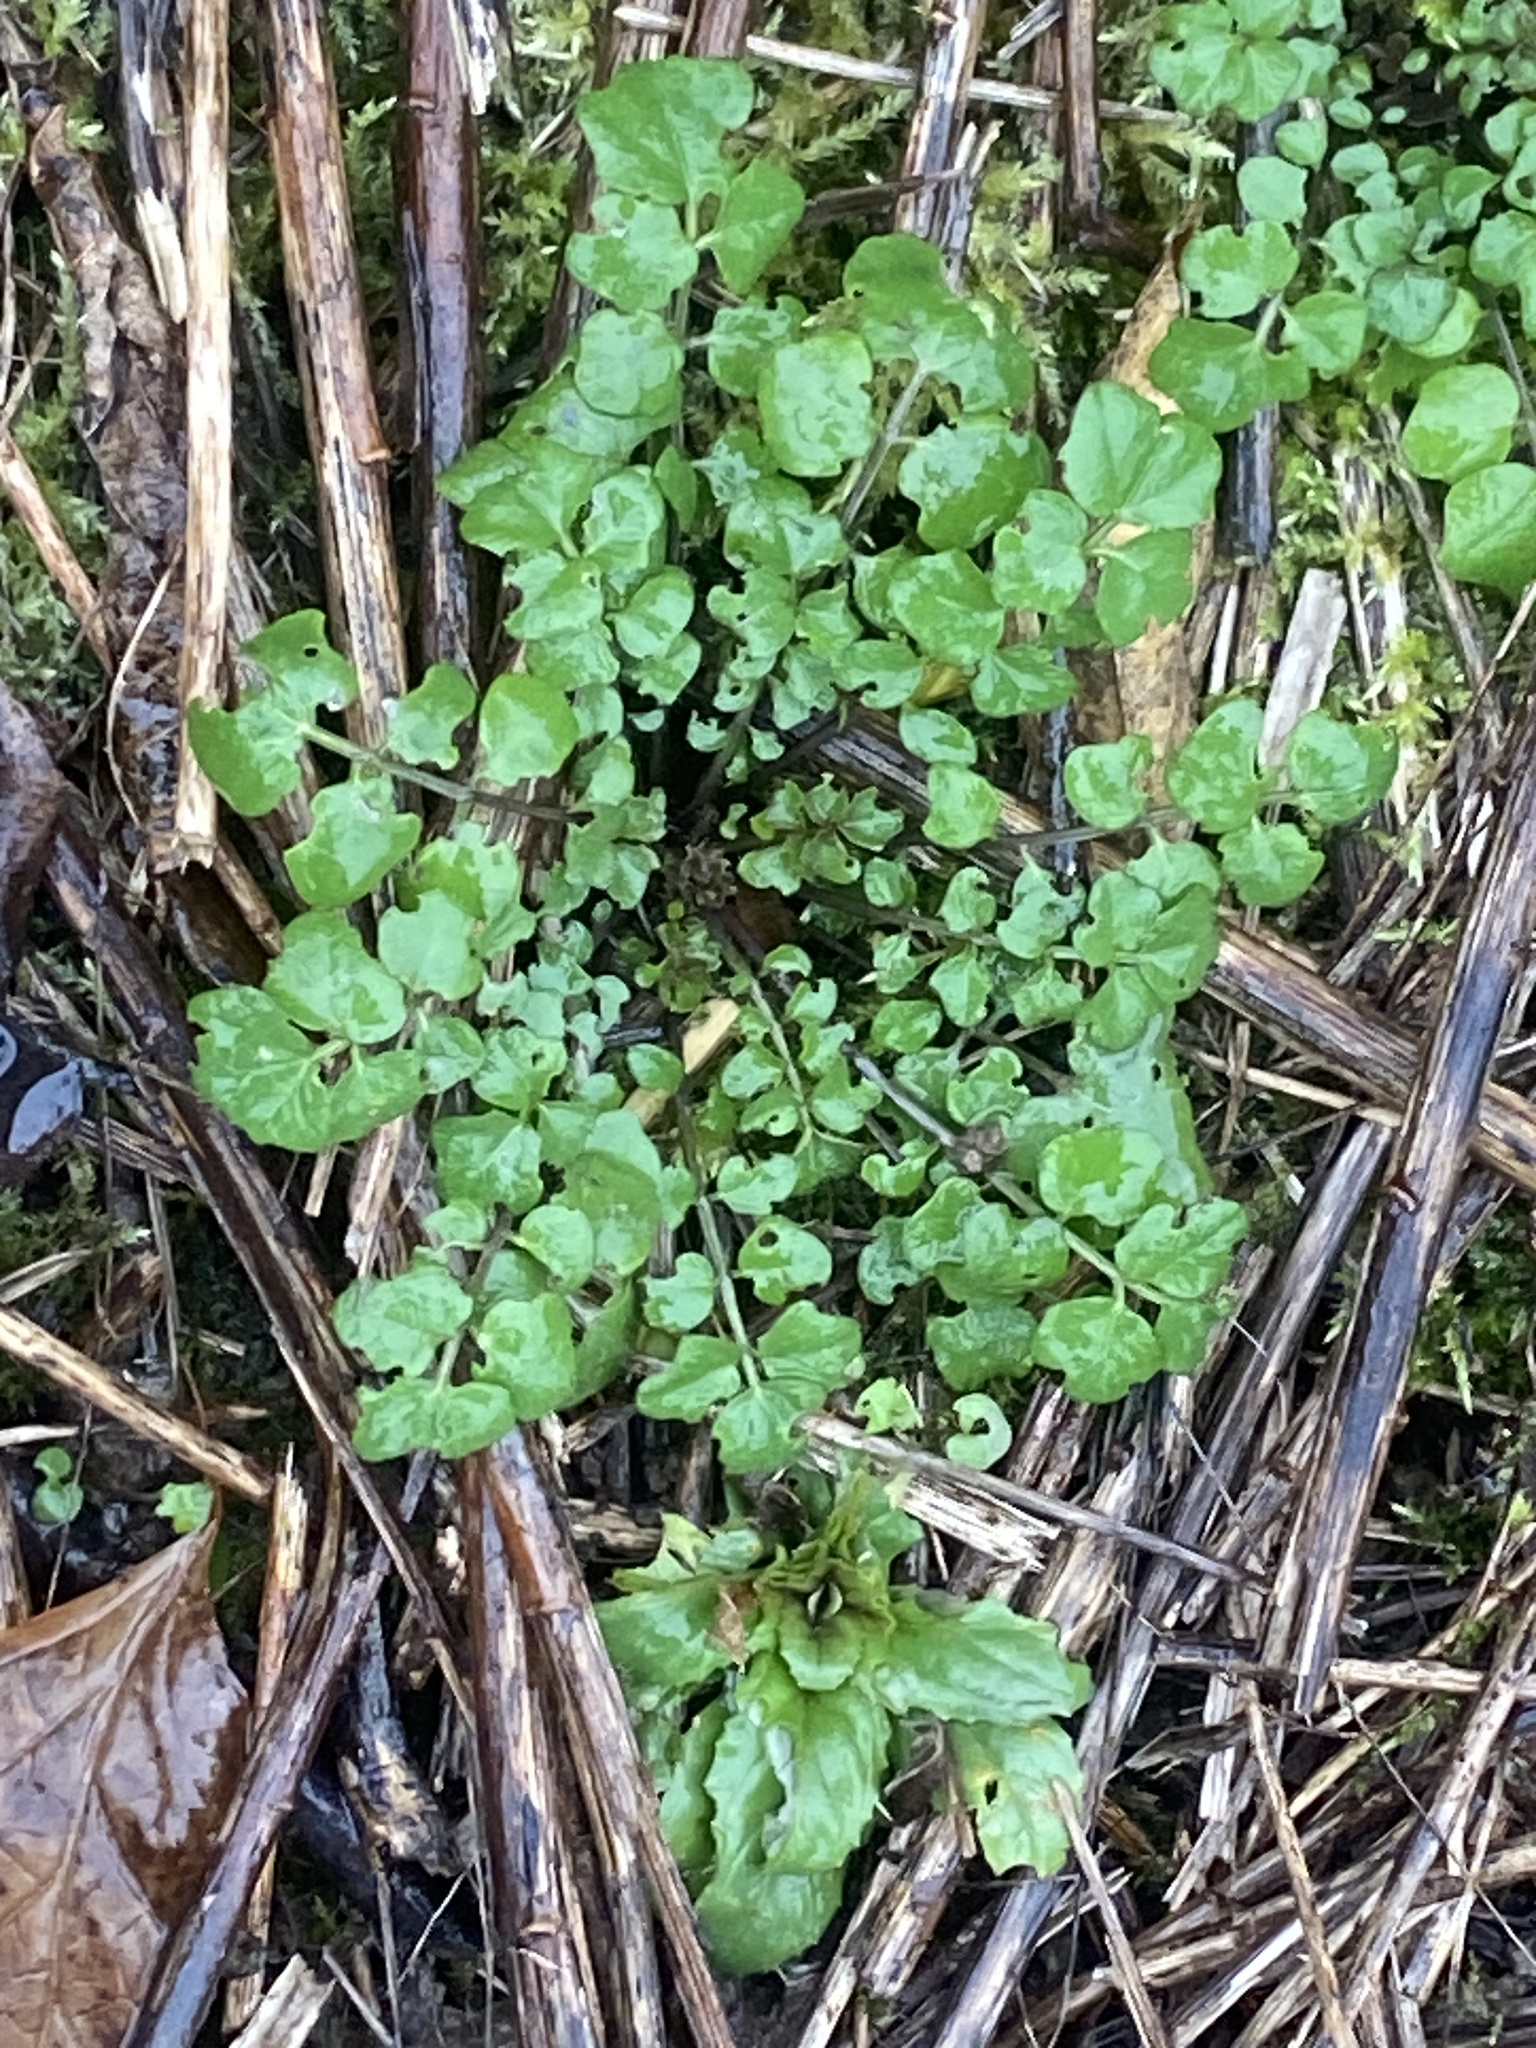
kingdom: Plantae
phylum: Tracheophyta
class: Magnoliopsida
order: Brassicales
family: Brassicaceae
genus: Cardamine
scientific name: Cardamine hirsuta
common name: Hairy bittercress
